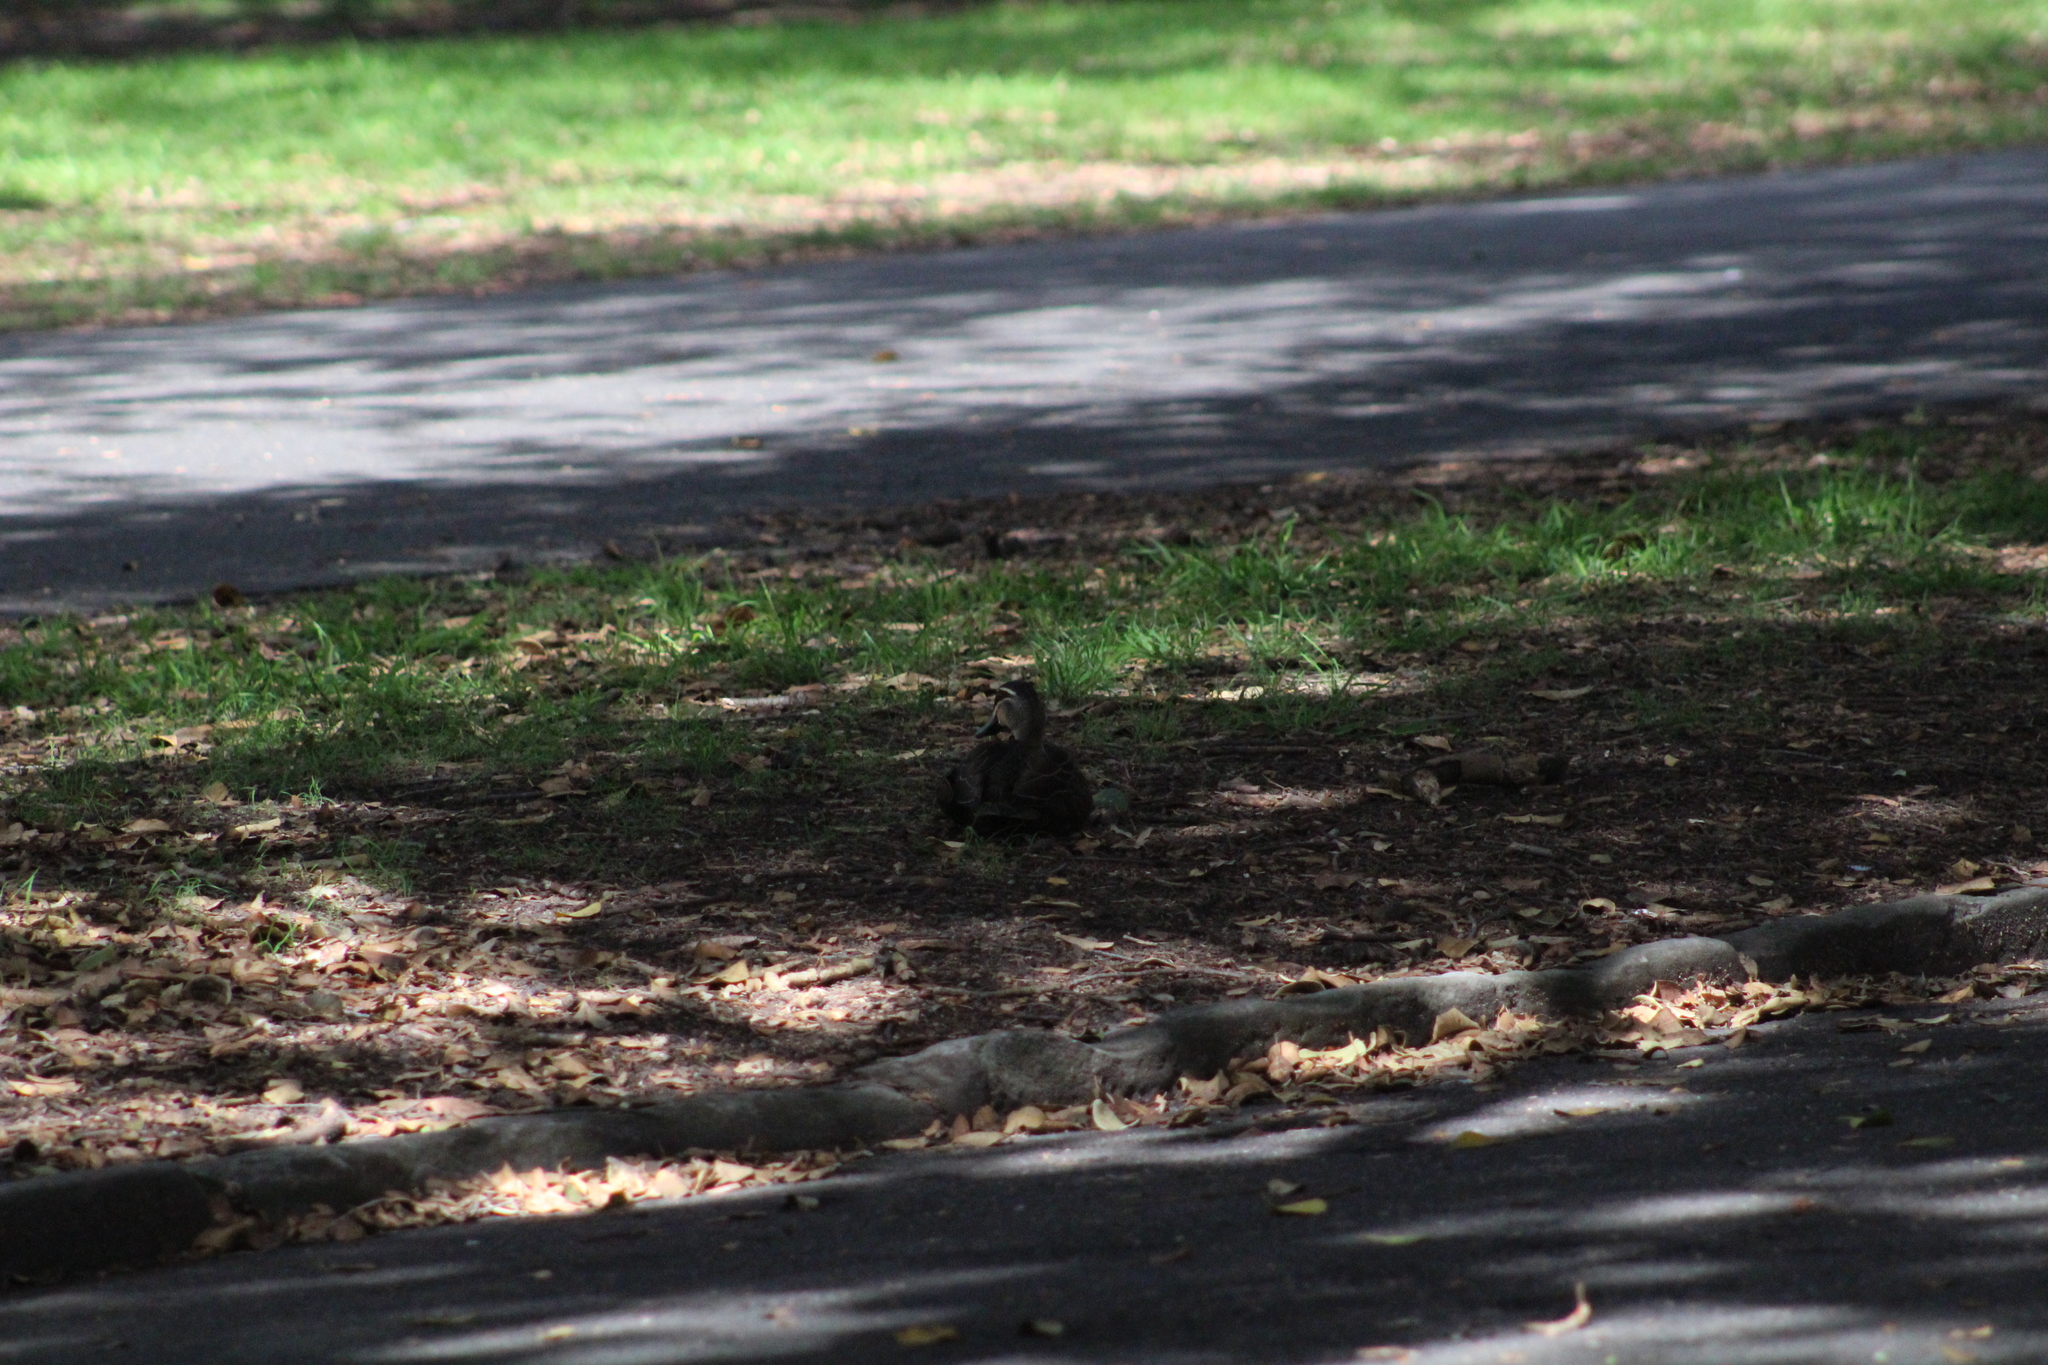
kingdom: Animalia
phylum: Chordata
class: Aves
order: Anseriformes
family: Anatidae
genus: Anas
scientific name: Anas superciliosa
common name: Pacific black duck
